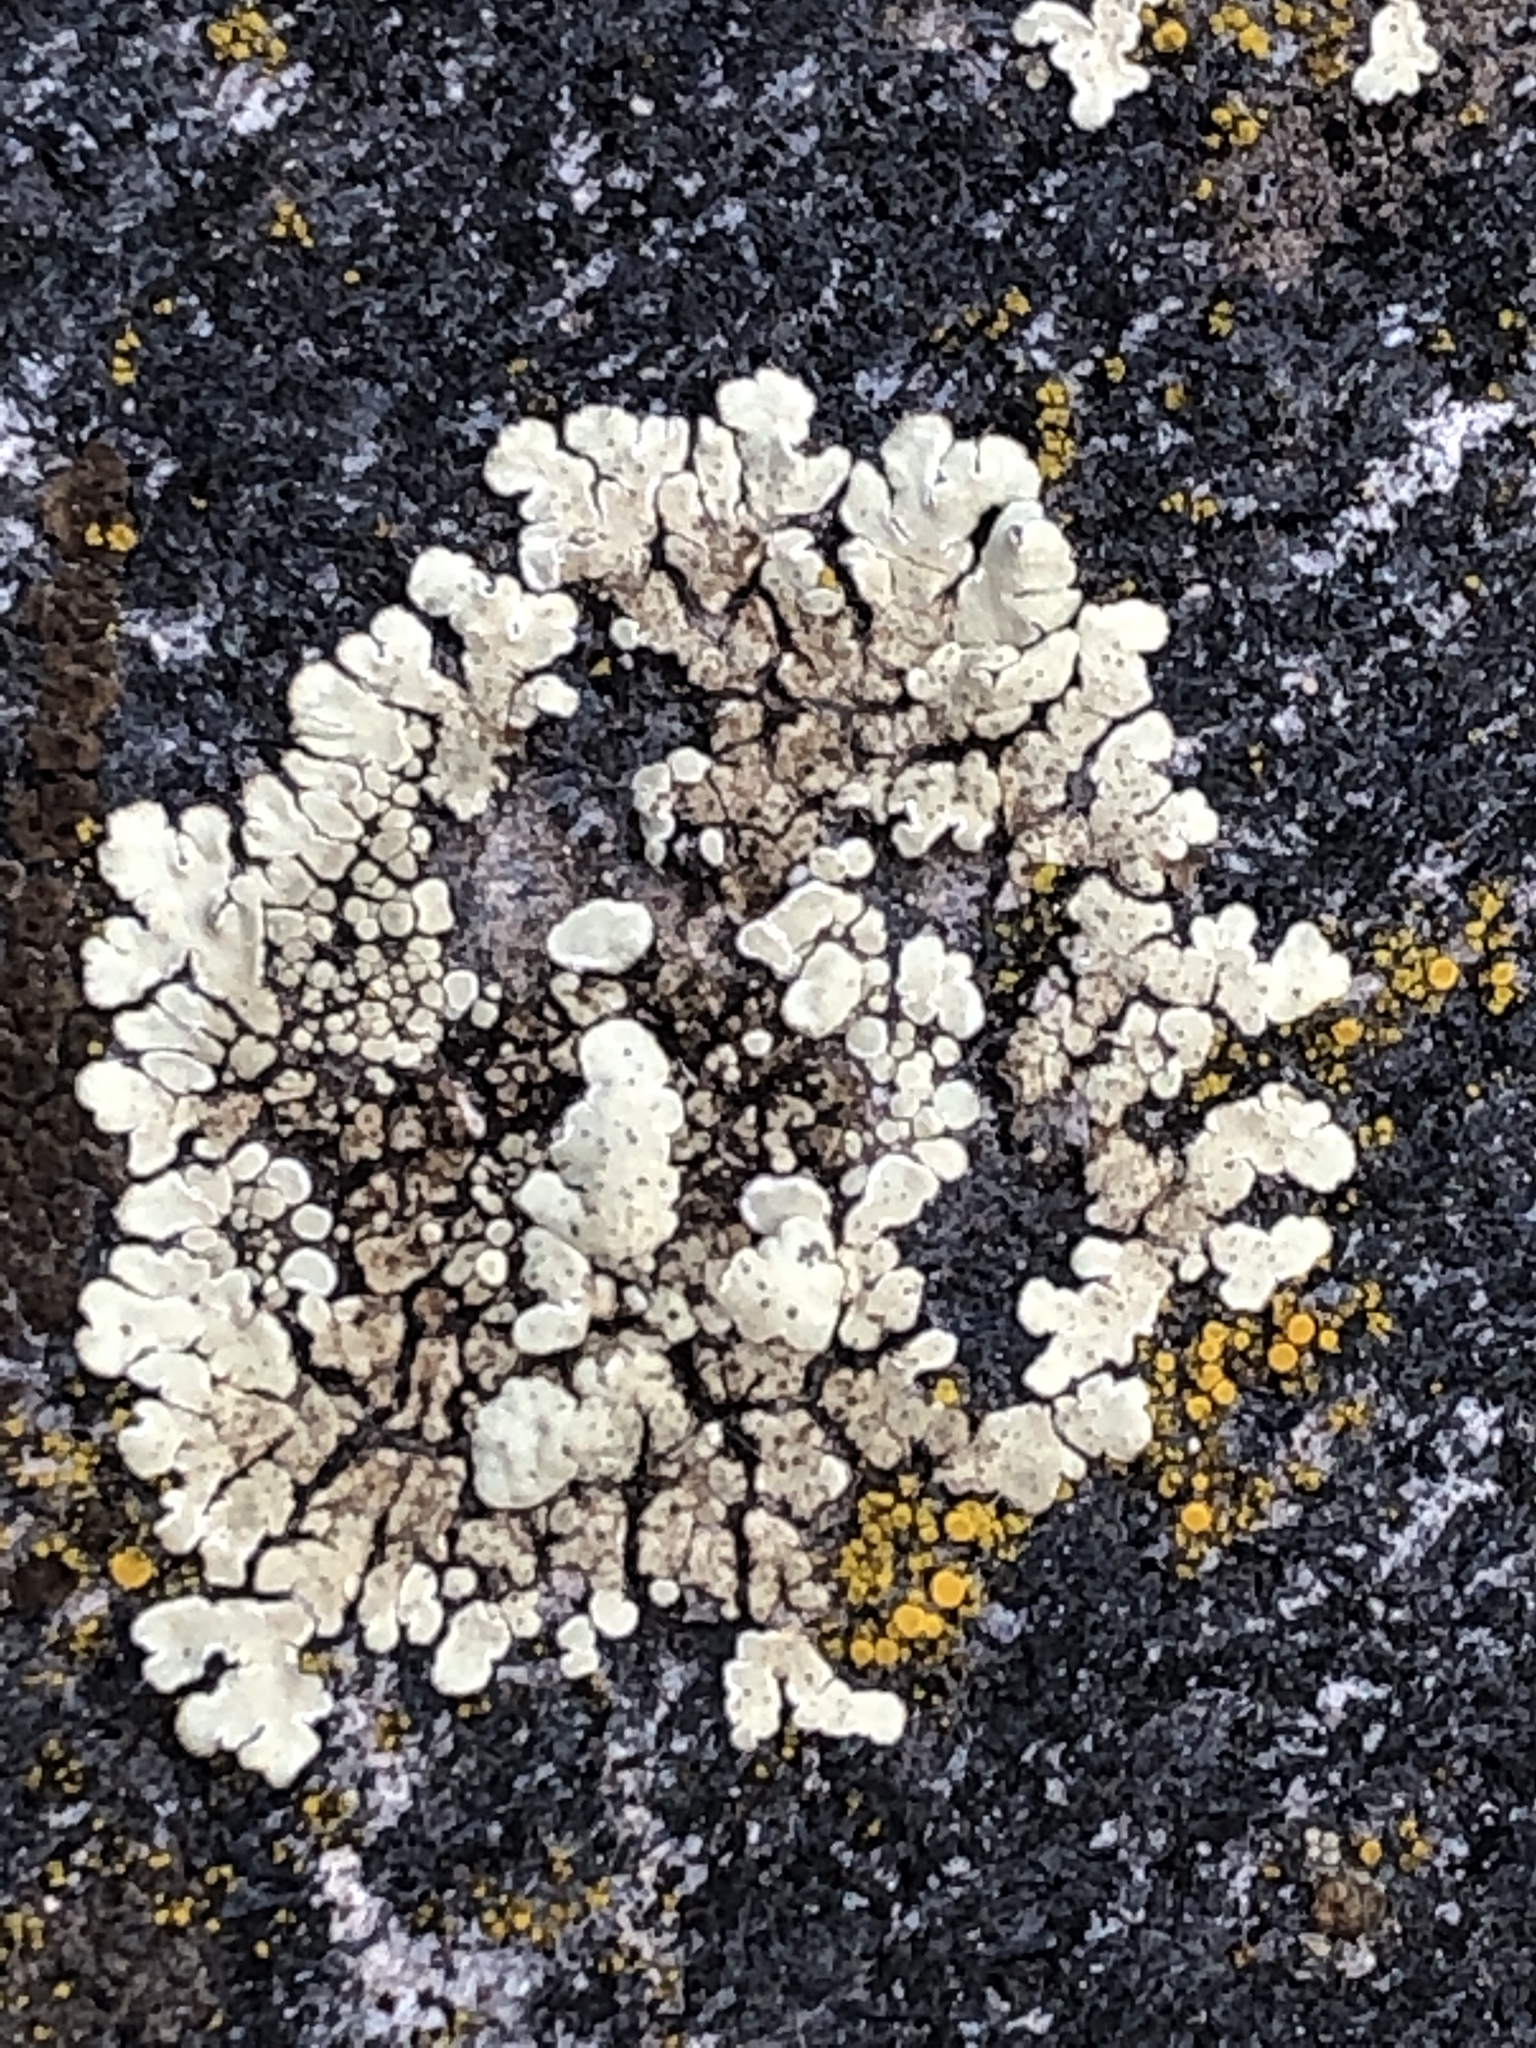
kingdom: Fungi
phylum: Ascomycota
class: Lecanoromycetes
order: Lecanorales
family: Lecanoraceae
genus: Protoparmeliopsis
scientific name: Protoparmeliopsis muralis
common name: Stonewall rim lichen
